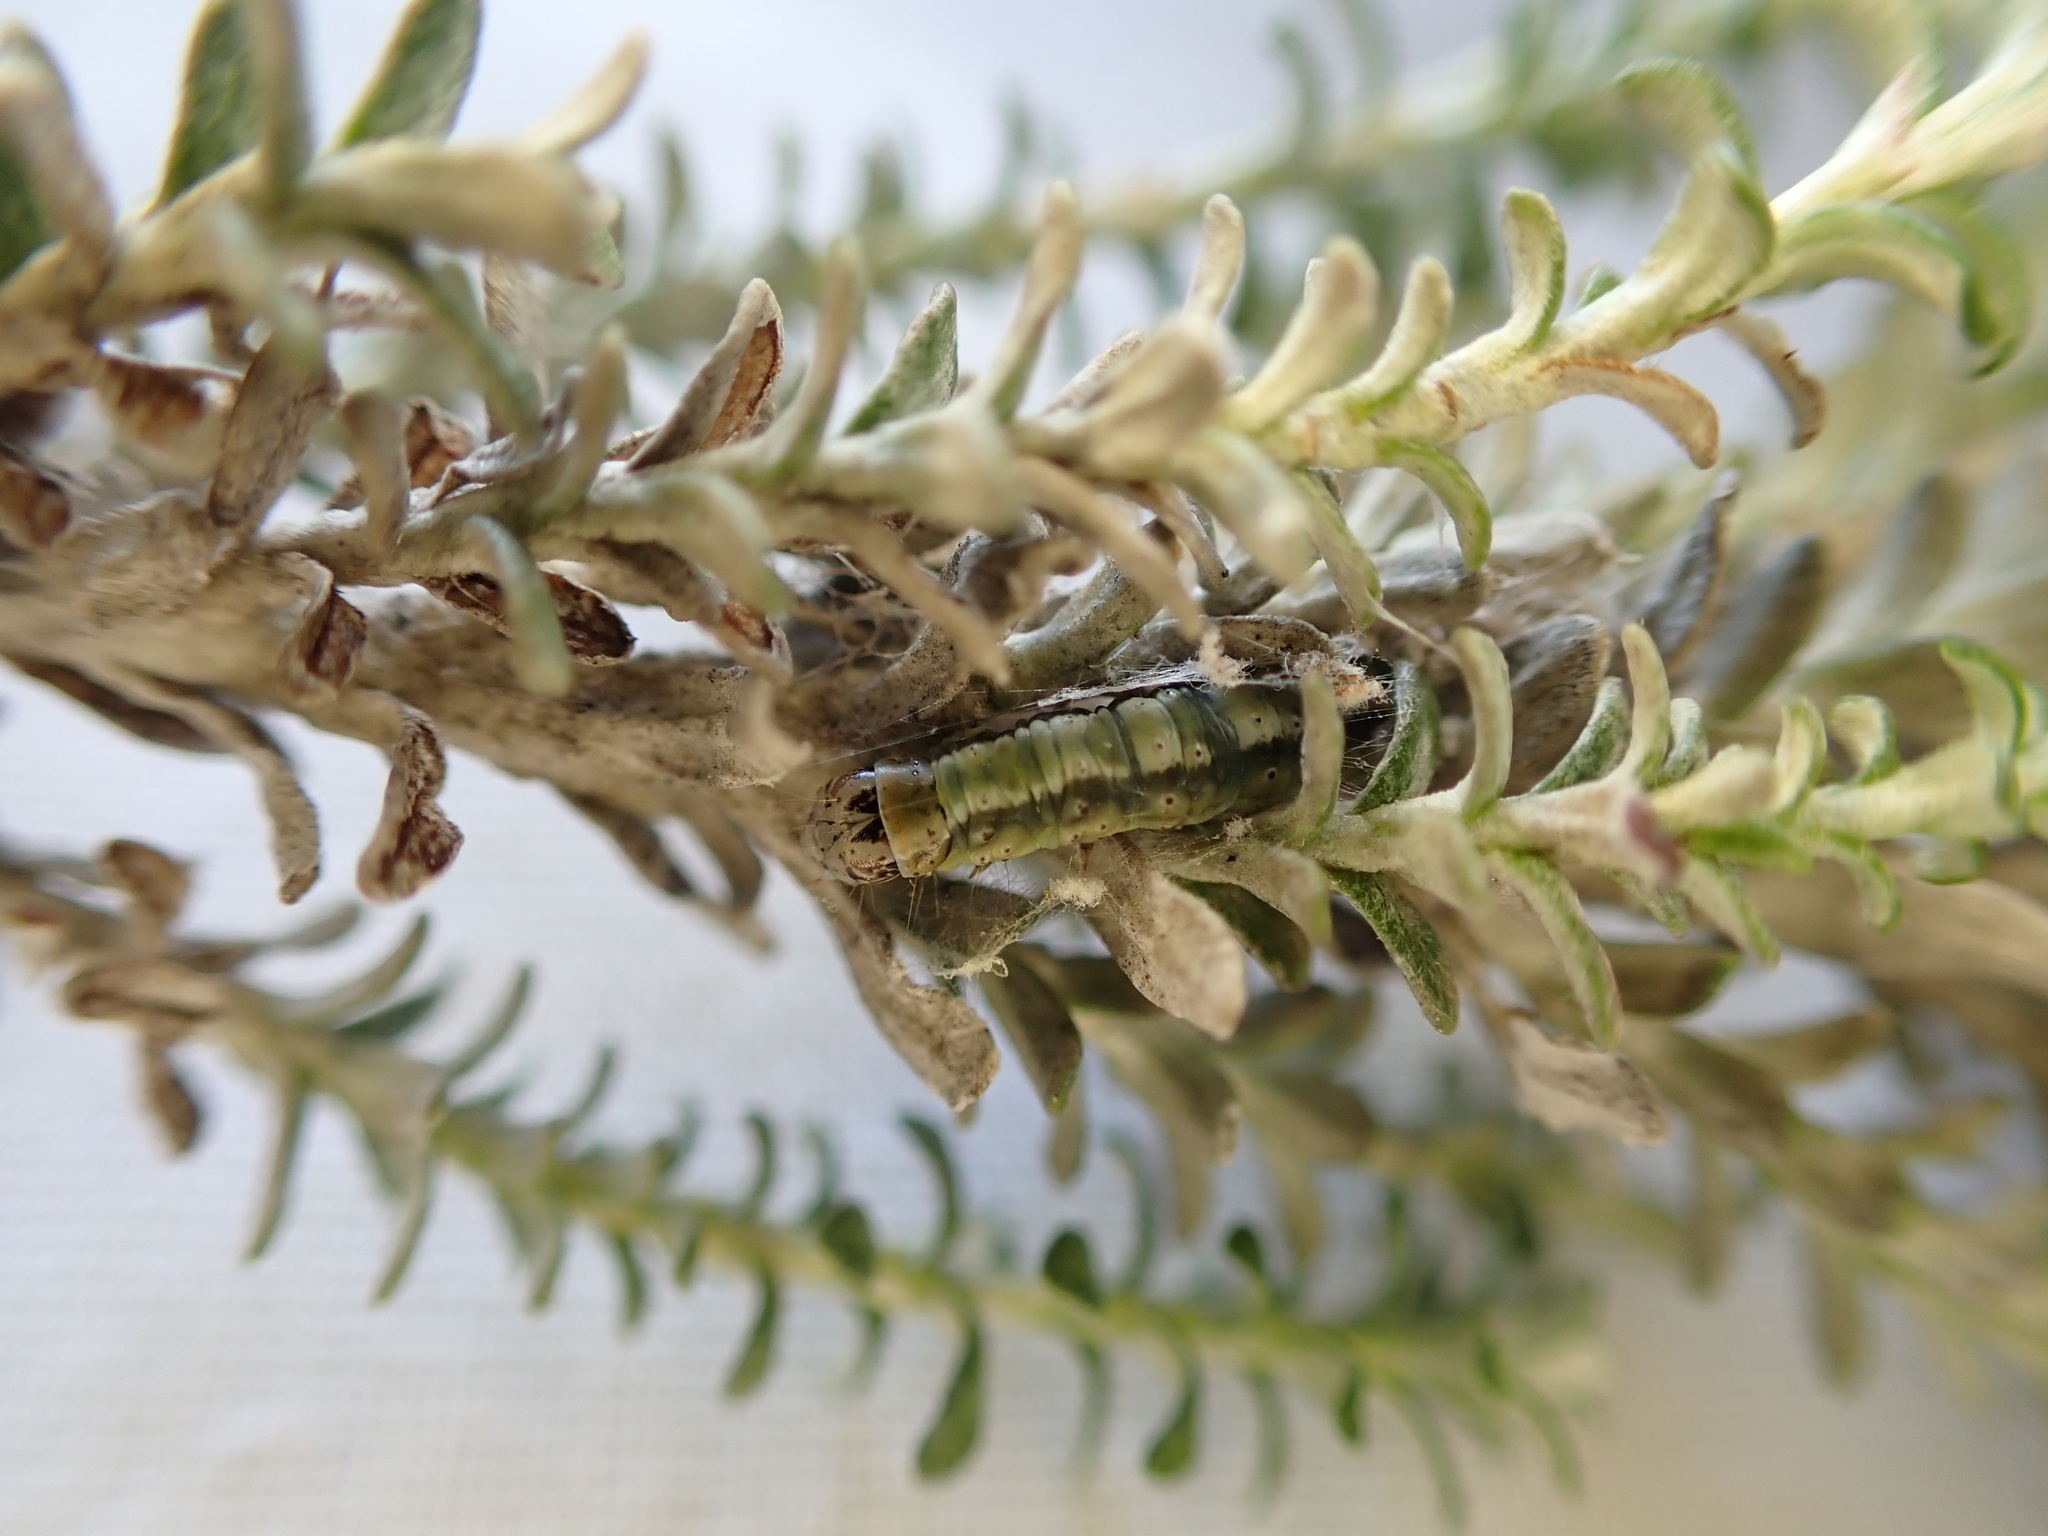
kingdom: Animalia
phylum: Arthropoda
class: Insecta
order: Lepidoptera
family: Tortricidae
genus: Harmologa
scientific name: Harmologa sisyrana
